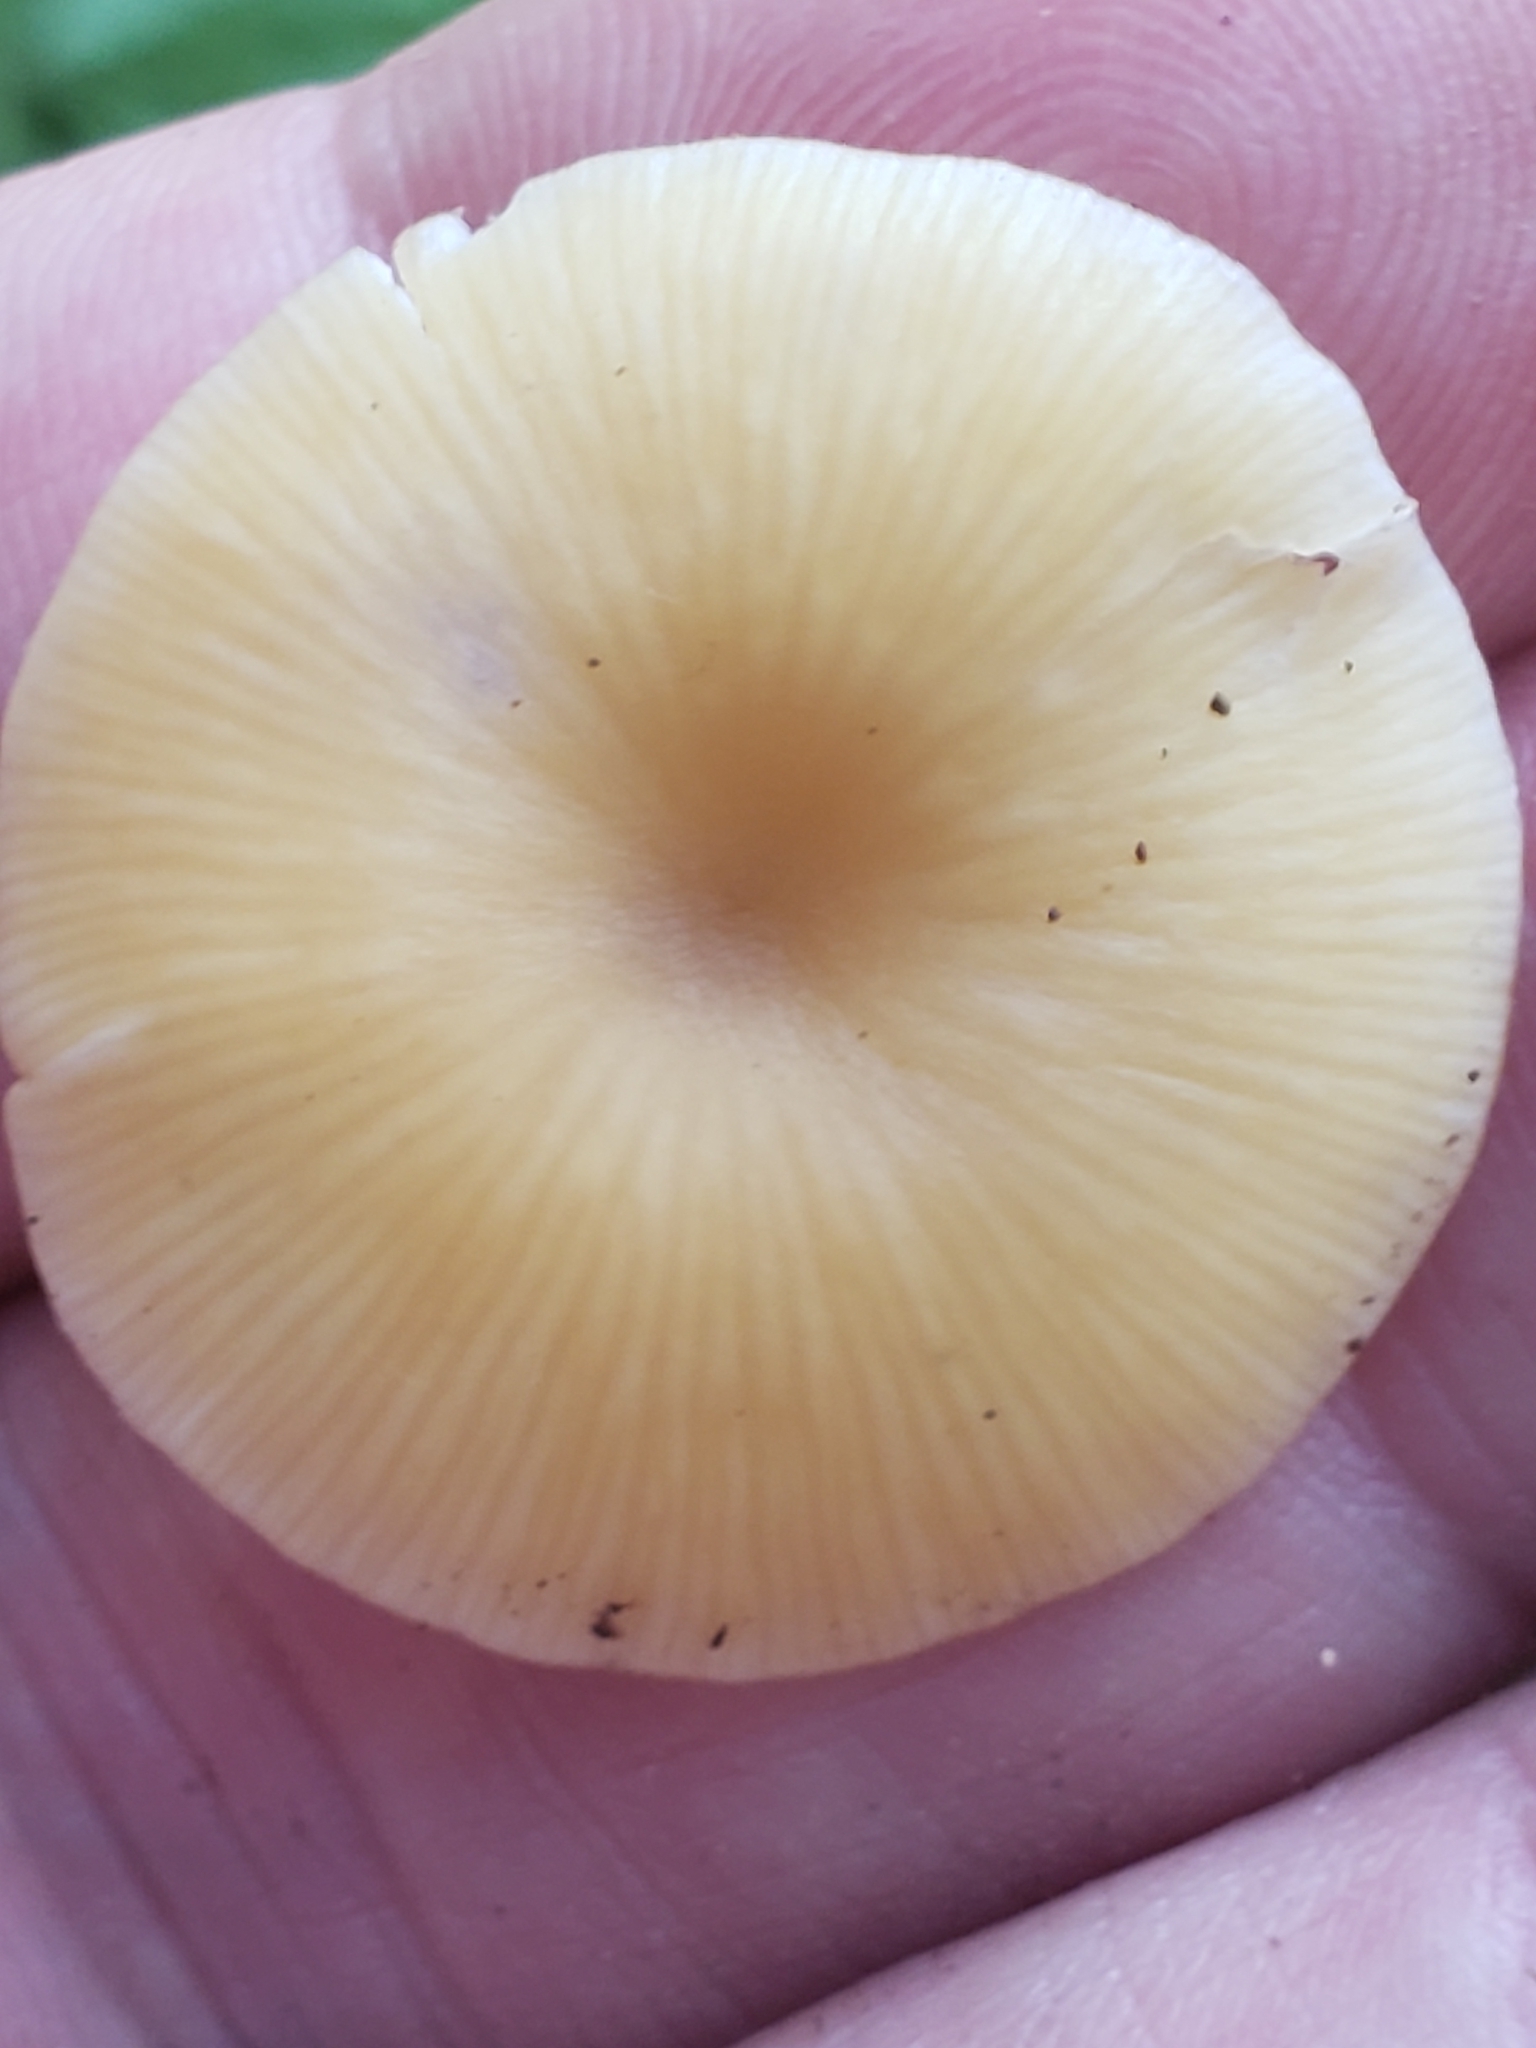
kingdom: Fungi
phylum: Basidiomycota
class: Agaricomycetes
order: Agaricales
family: Pluteaceae
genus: Pluteus
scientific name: Pluteus chrysophlebius
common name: Yellow deer mushroom
